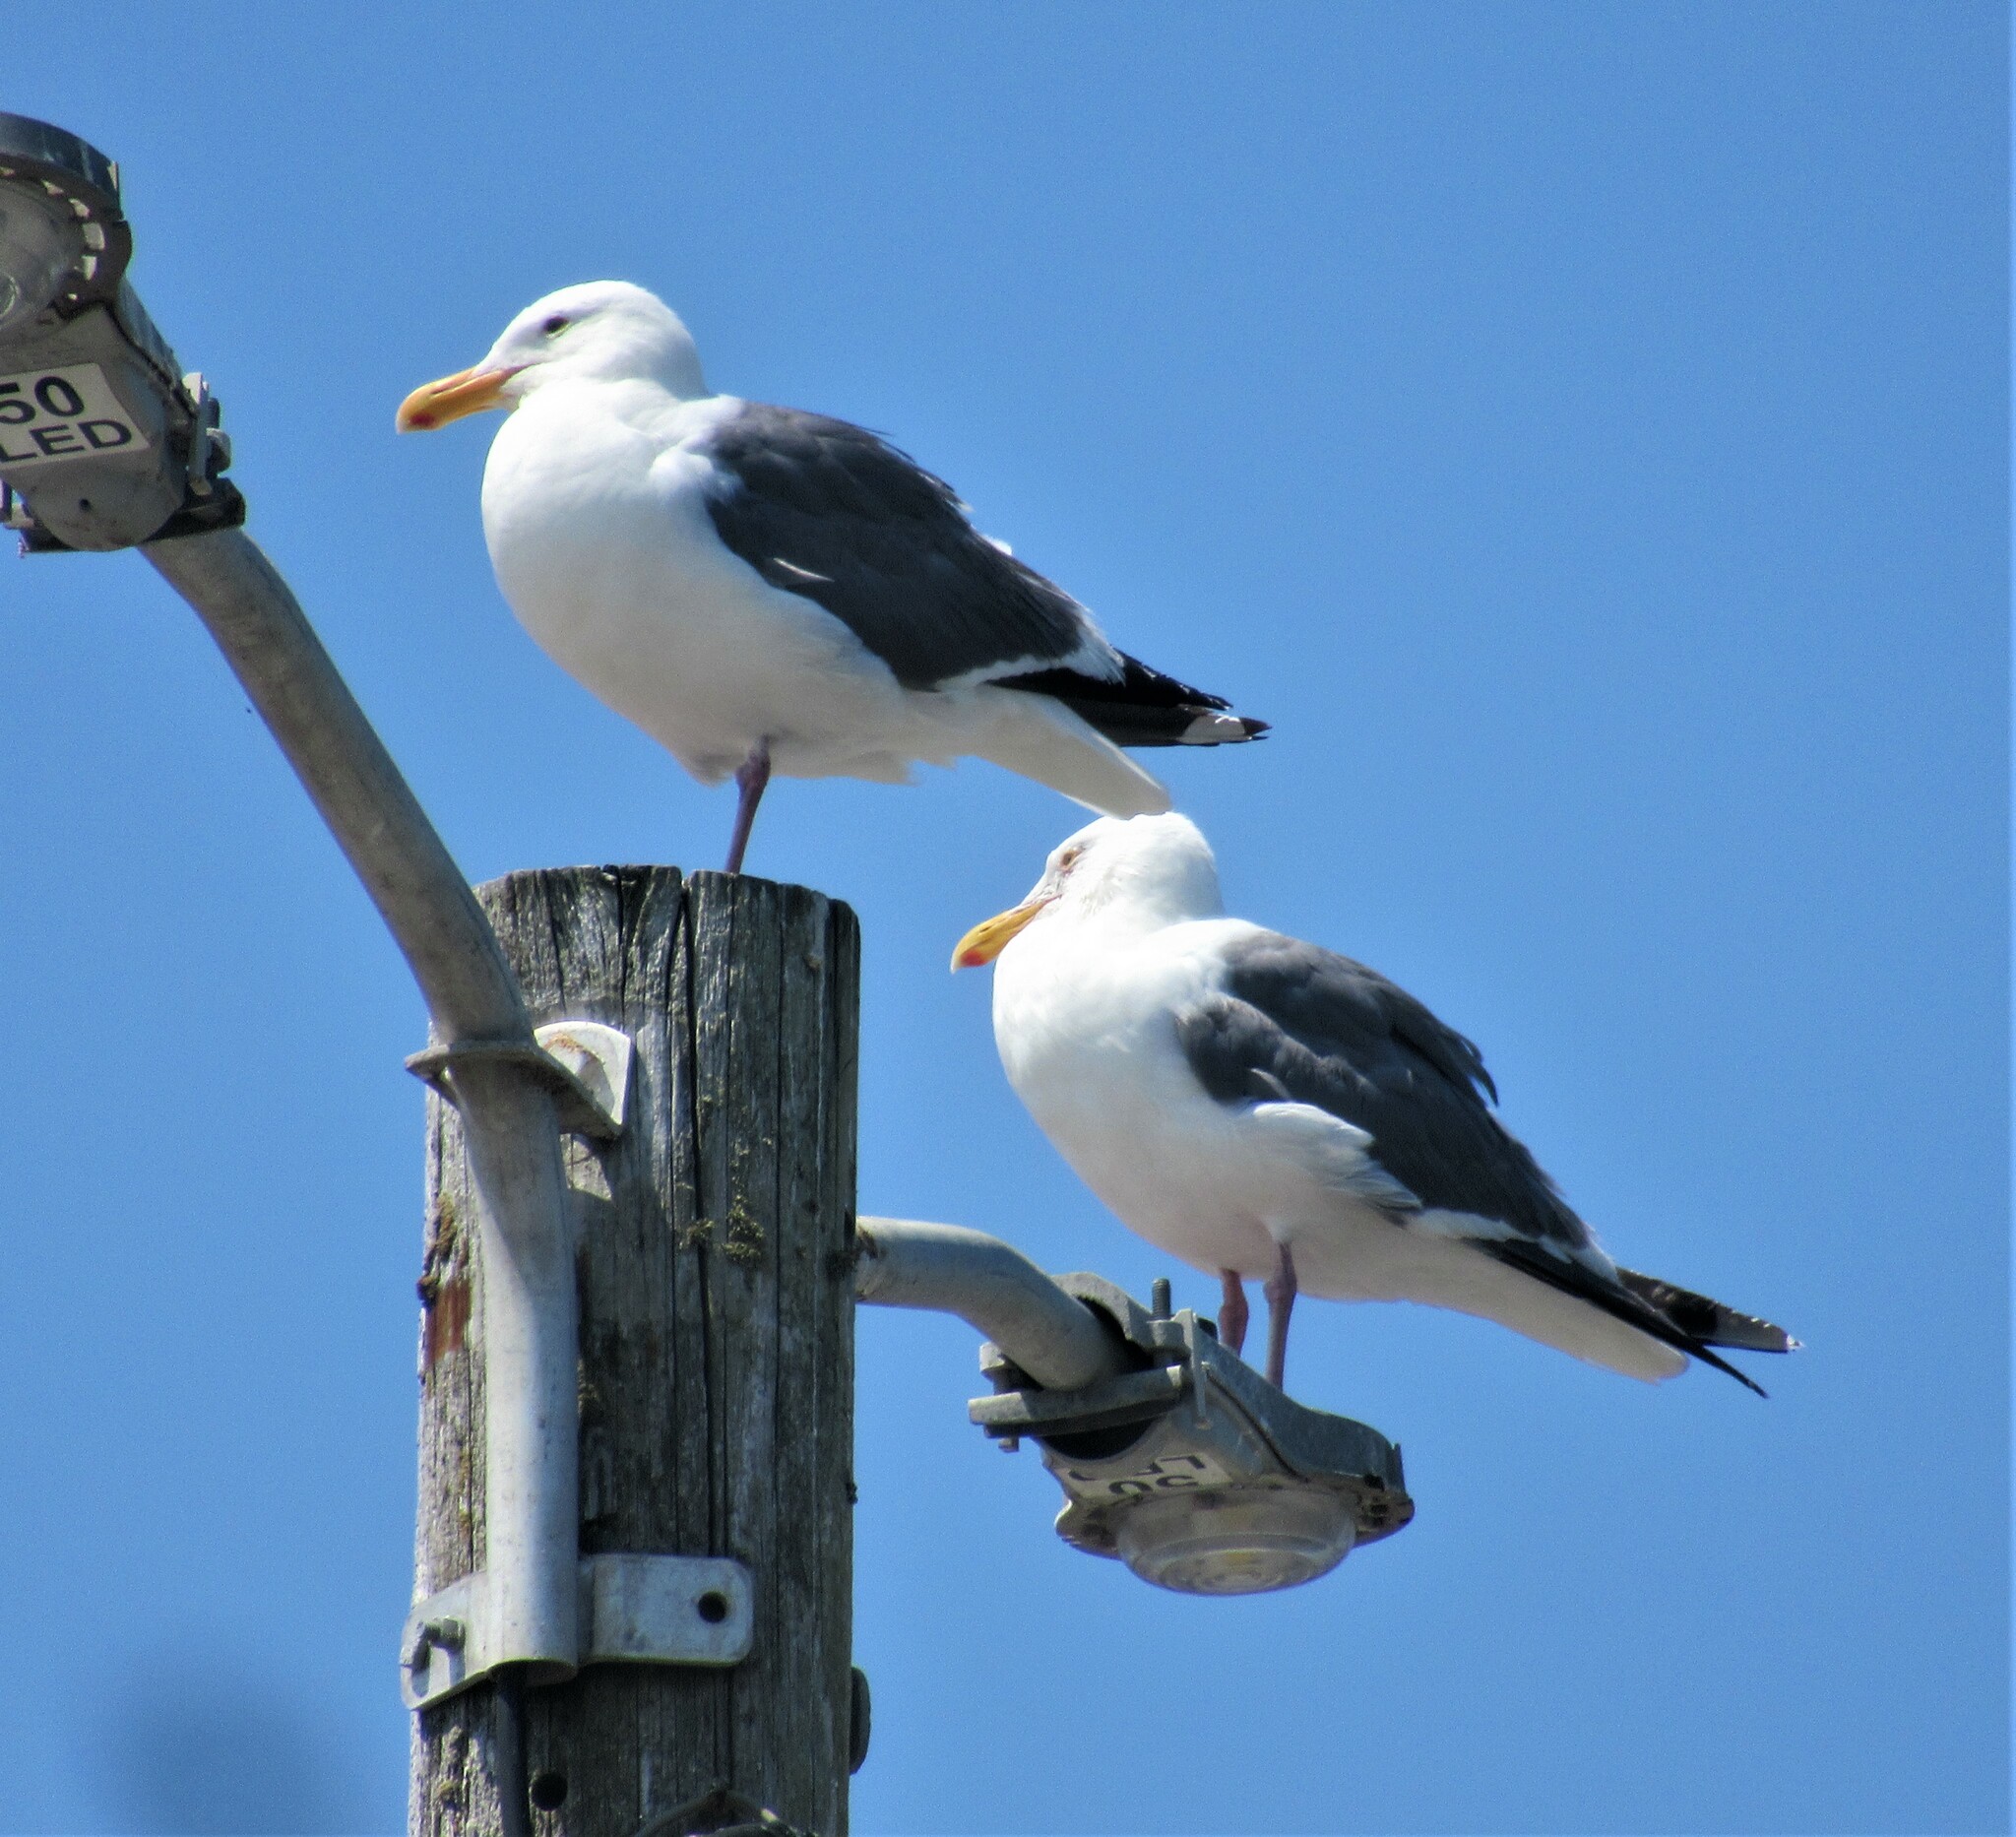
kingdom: Animalia
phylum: Chordata
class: Aves
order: Charadriiformes
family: Laridae
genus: Larus
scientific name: Larus occidentalis
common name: Western gull
